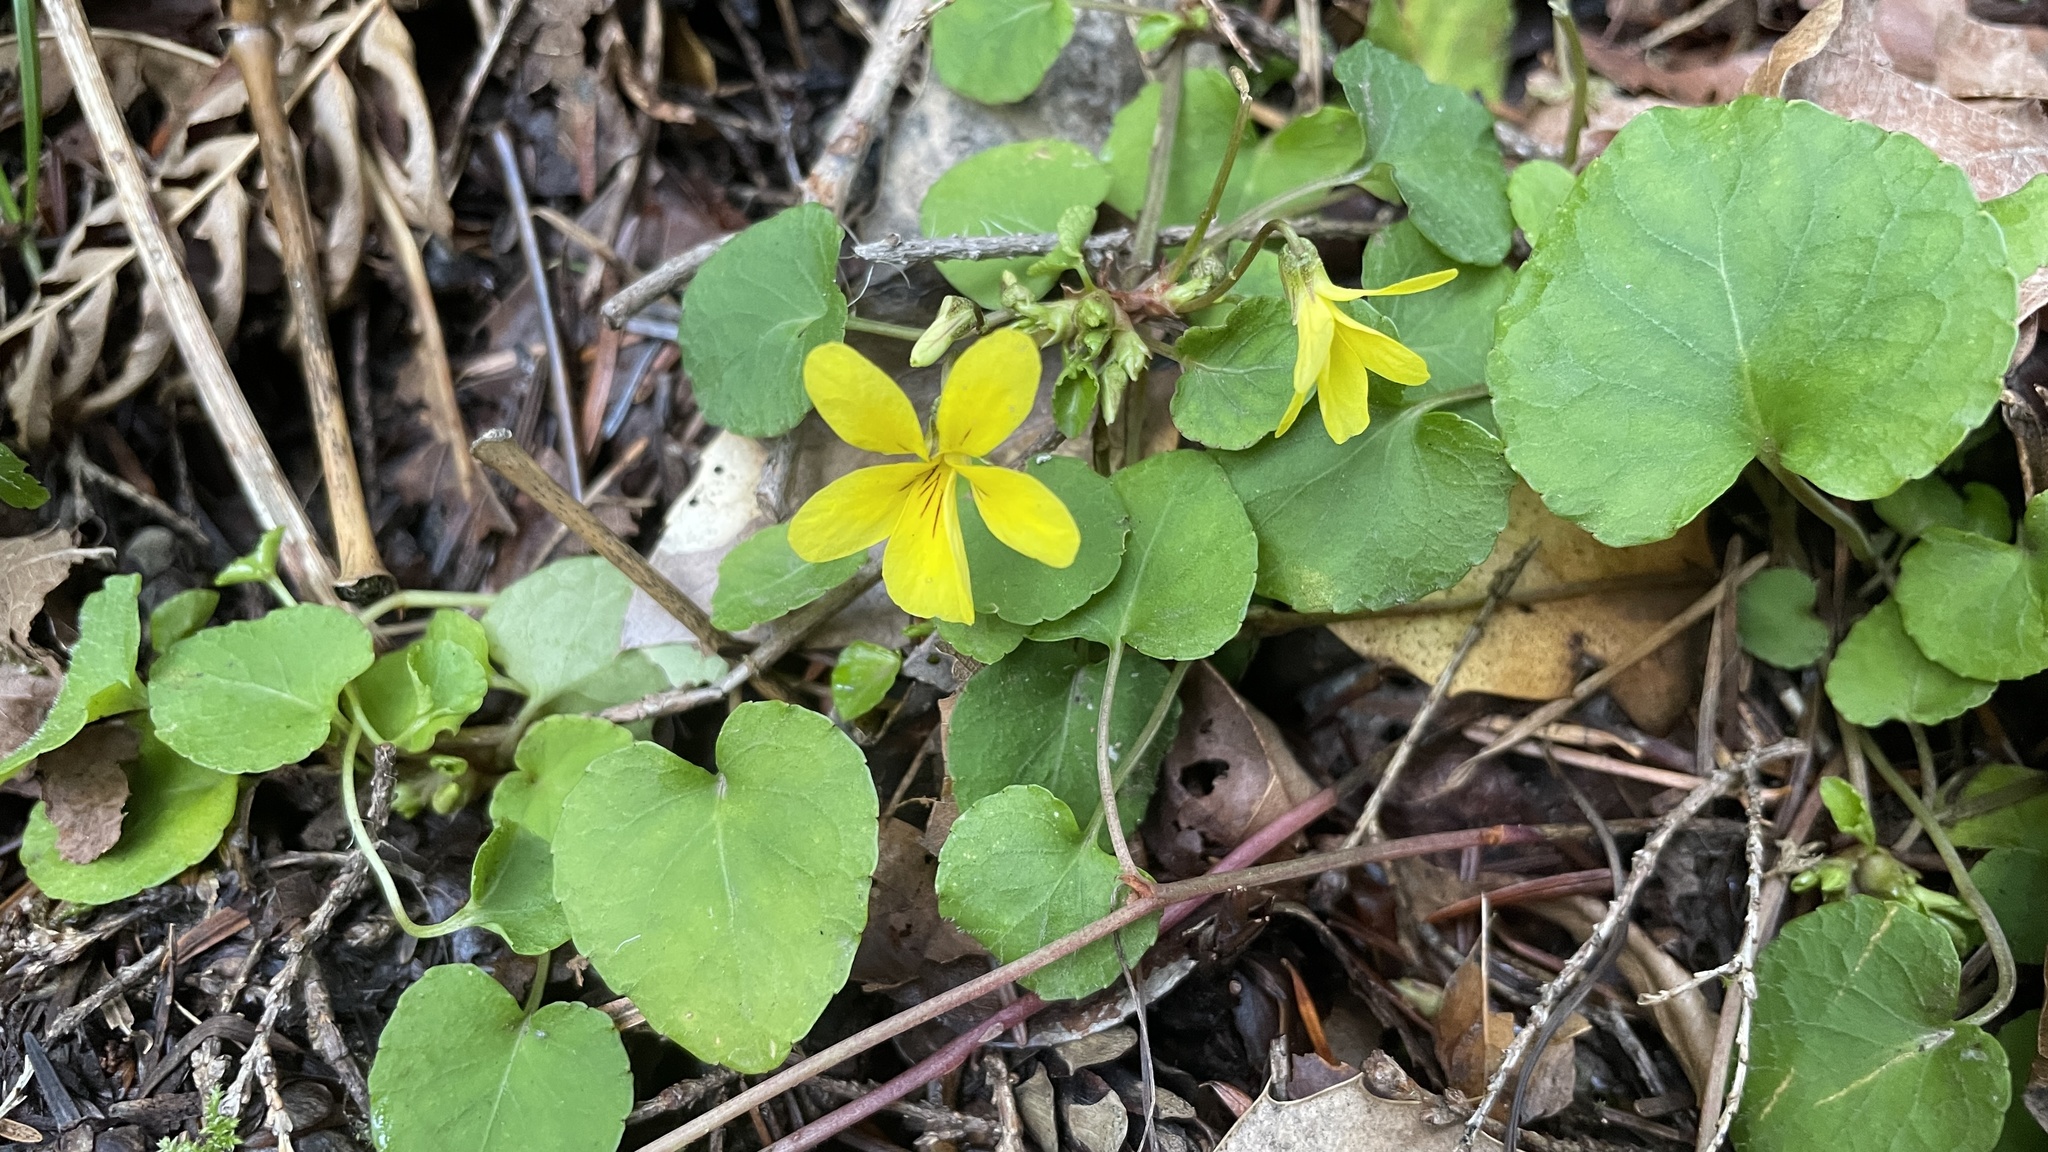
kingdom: Plantae
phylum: Tracheophyta
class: Magnoliopsida
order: Malpighiales
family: Violaceae
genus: Viola
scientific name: Viola sempervirens
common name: Evergreen violet
